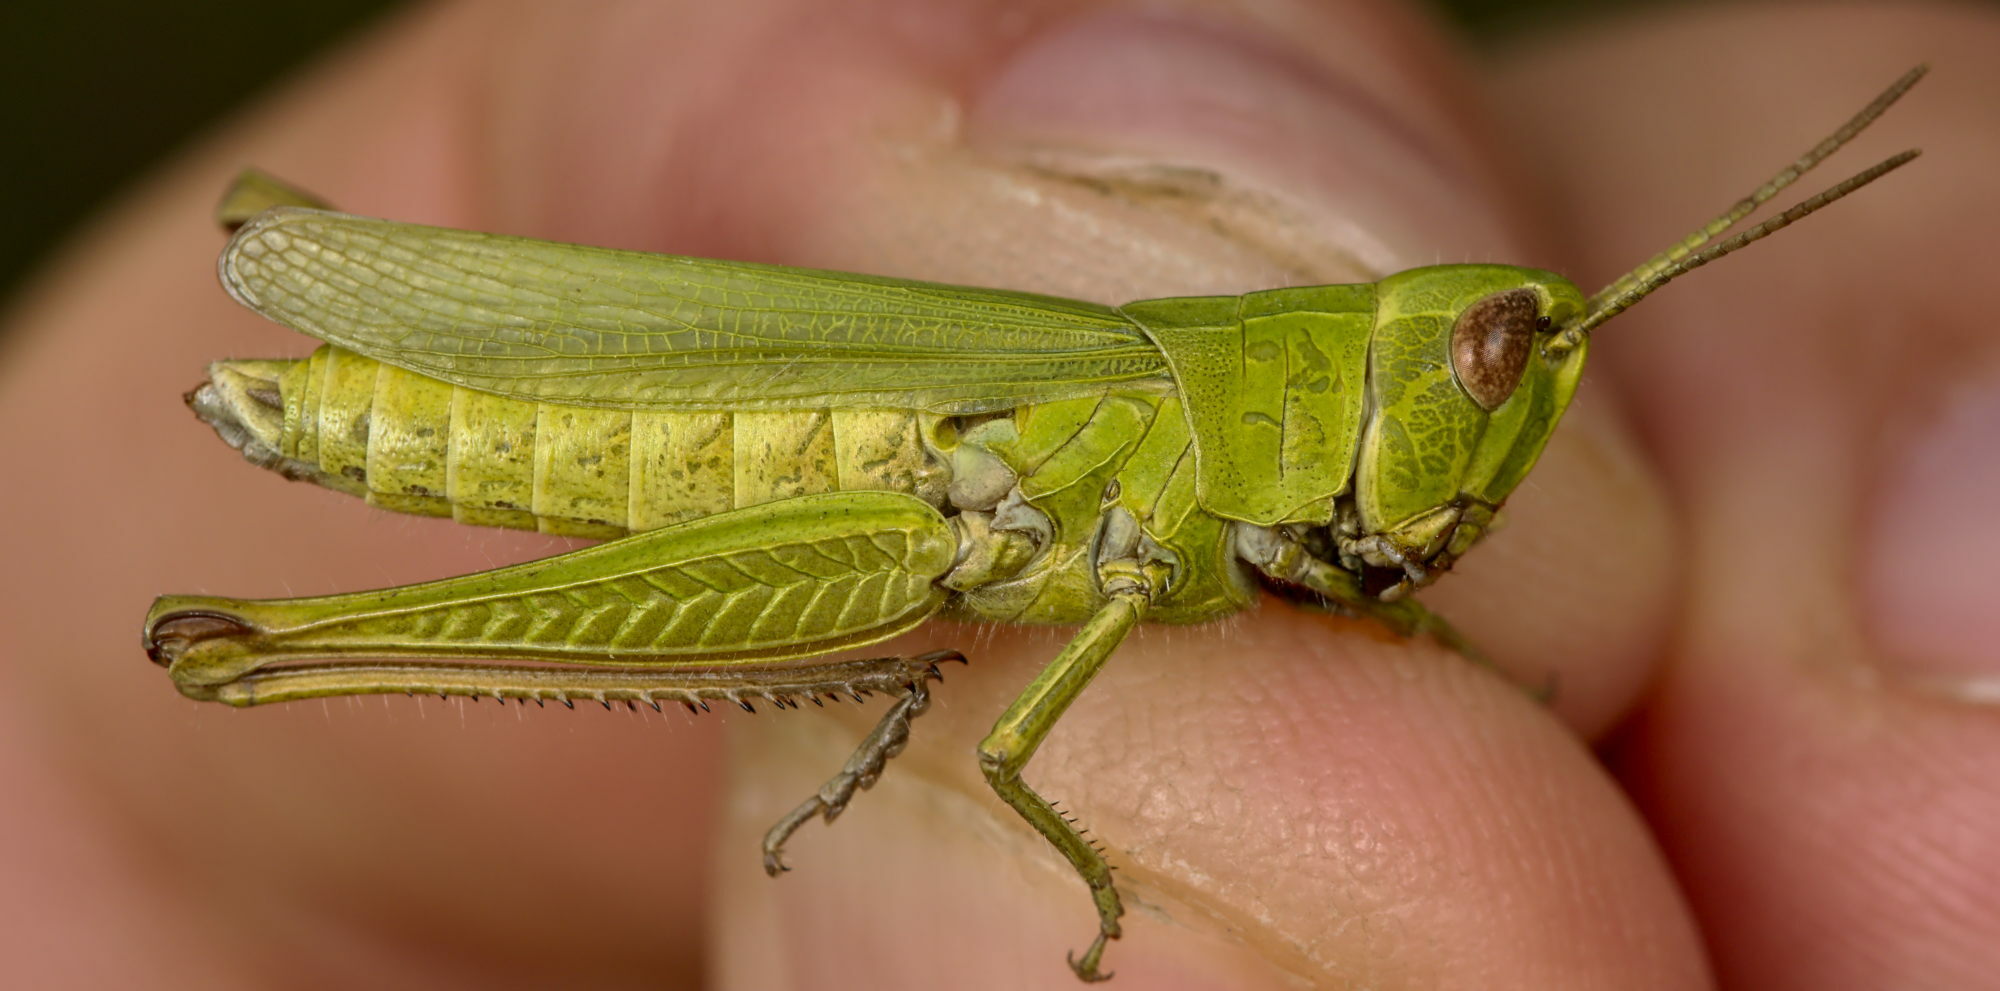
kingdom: Animalia
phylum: Arthropoda
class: Insecta
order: Orthoptera
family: Acrididae
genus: Chorthippus
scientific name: Chorthippus dorsatus
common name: Steppe grasshopper
